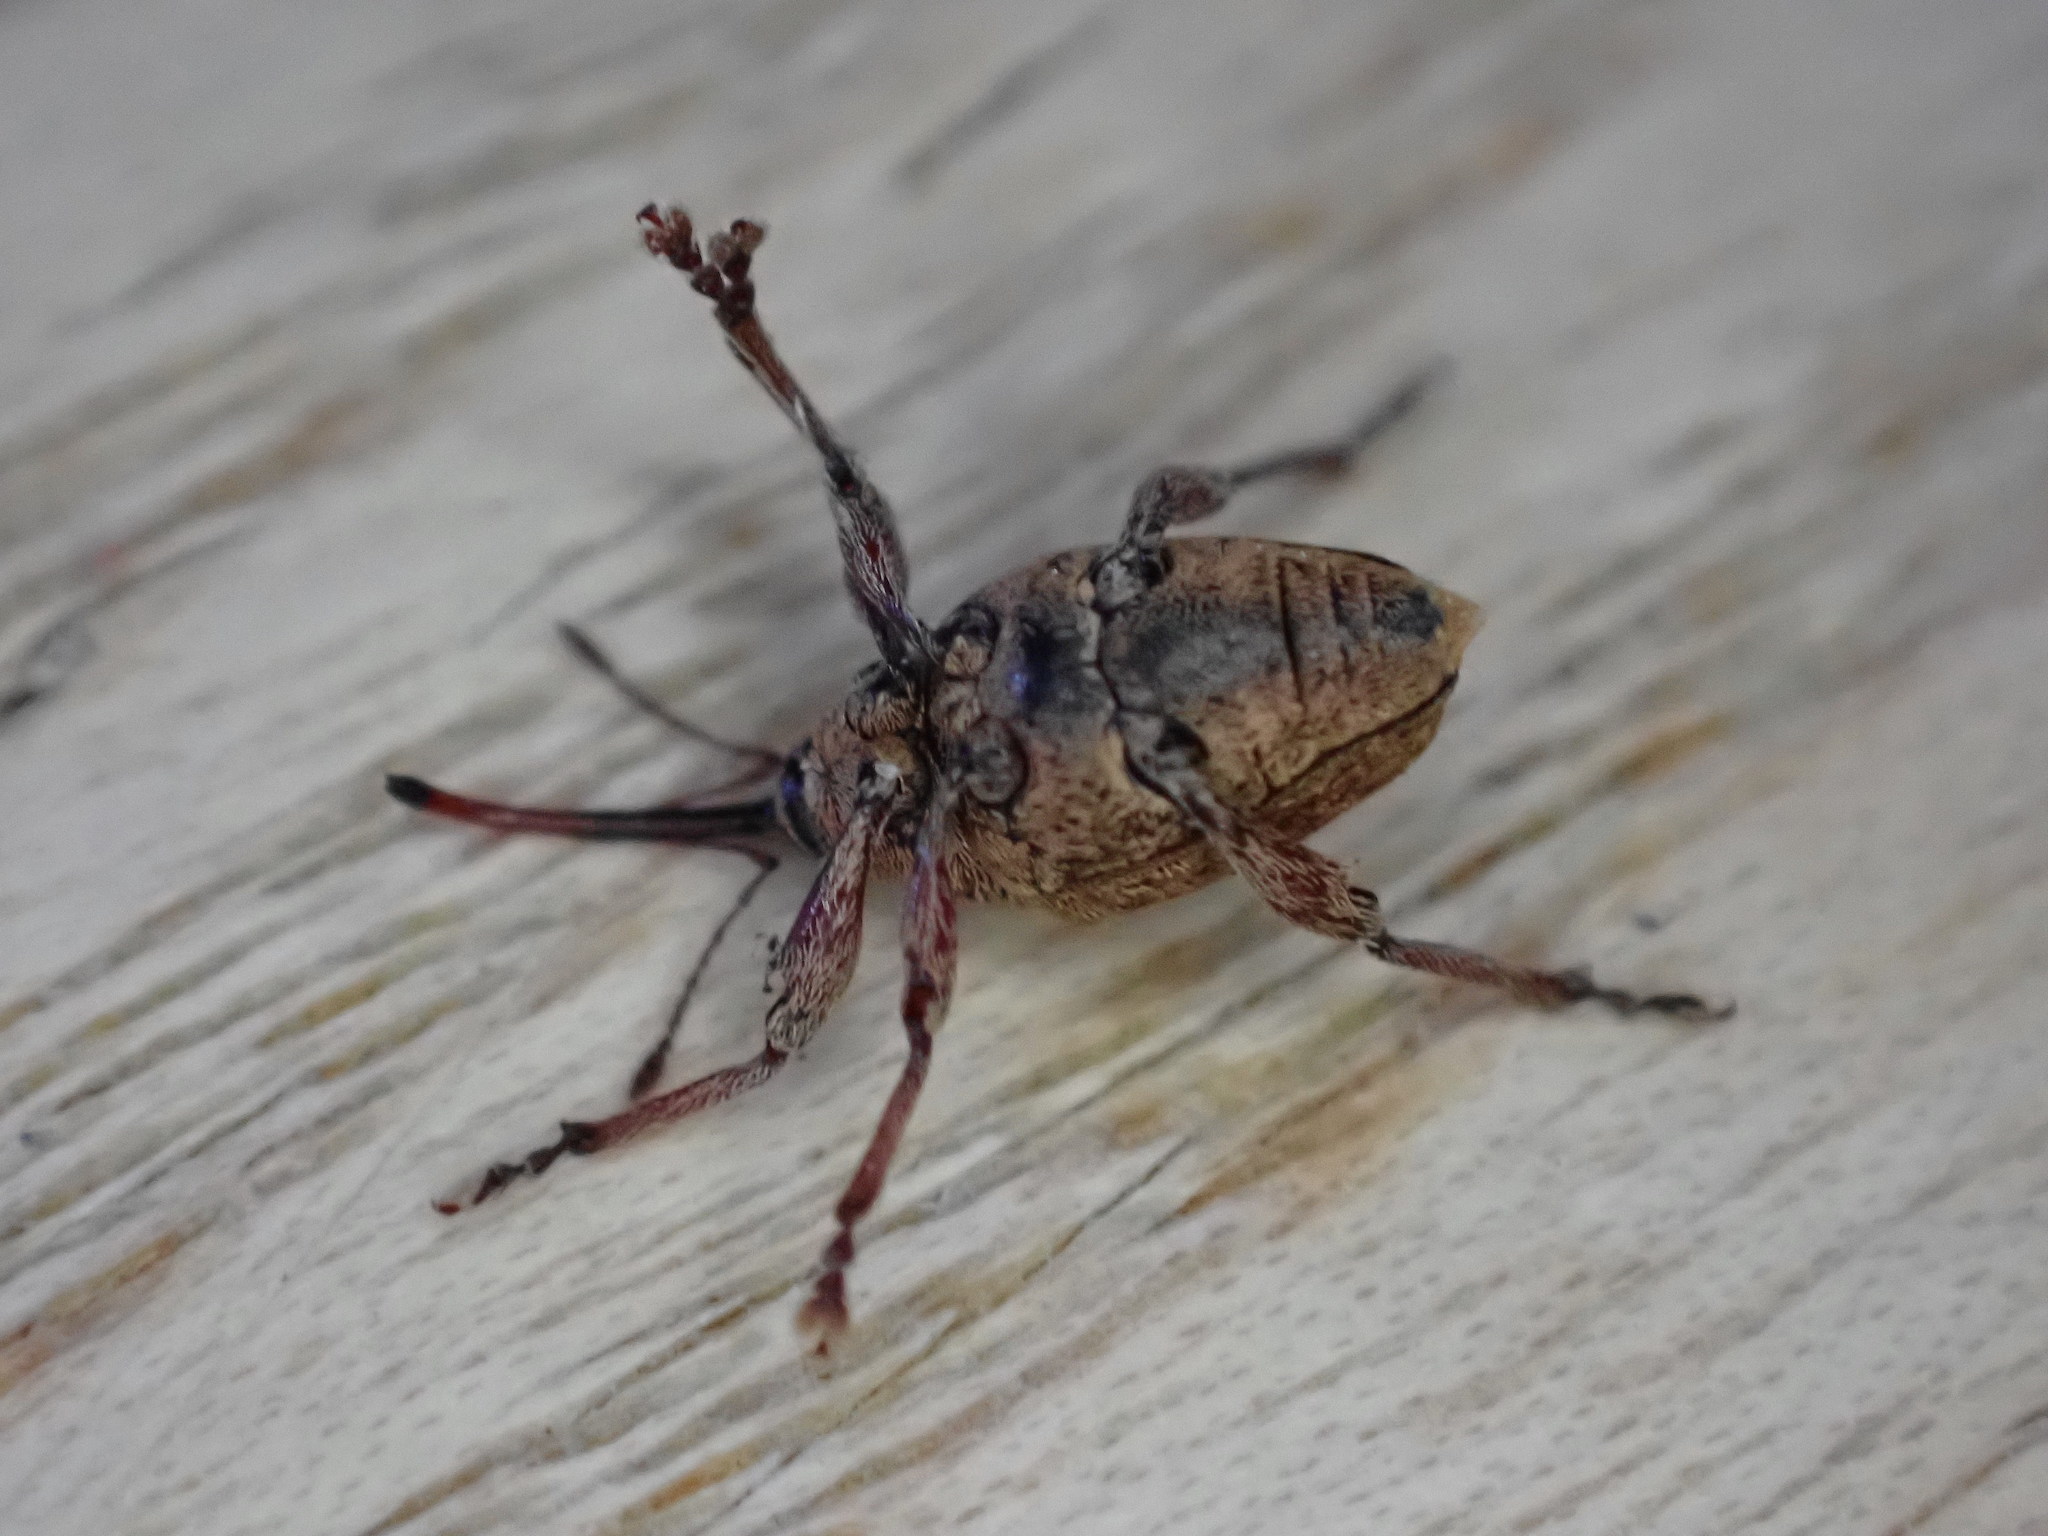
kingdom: Animalia
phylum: Arthropoda
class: Insecta
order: Coleoptera
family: Curculionidae
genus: Curculio
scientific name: Curculio glandium
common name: Acorn weevil
